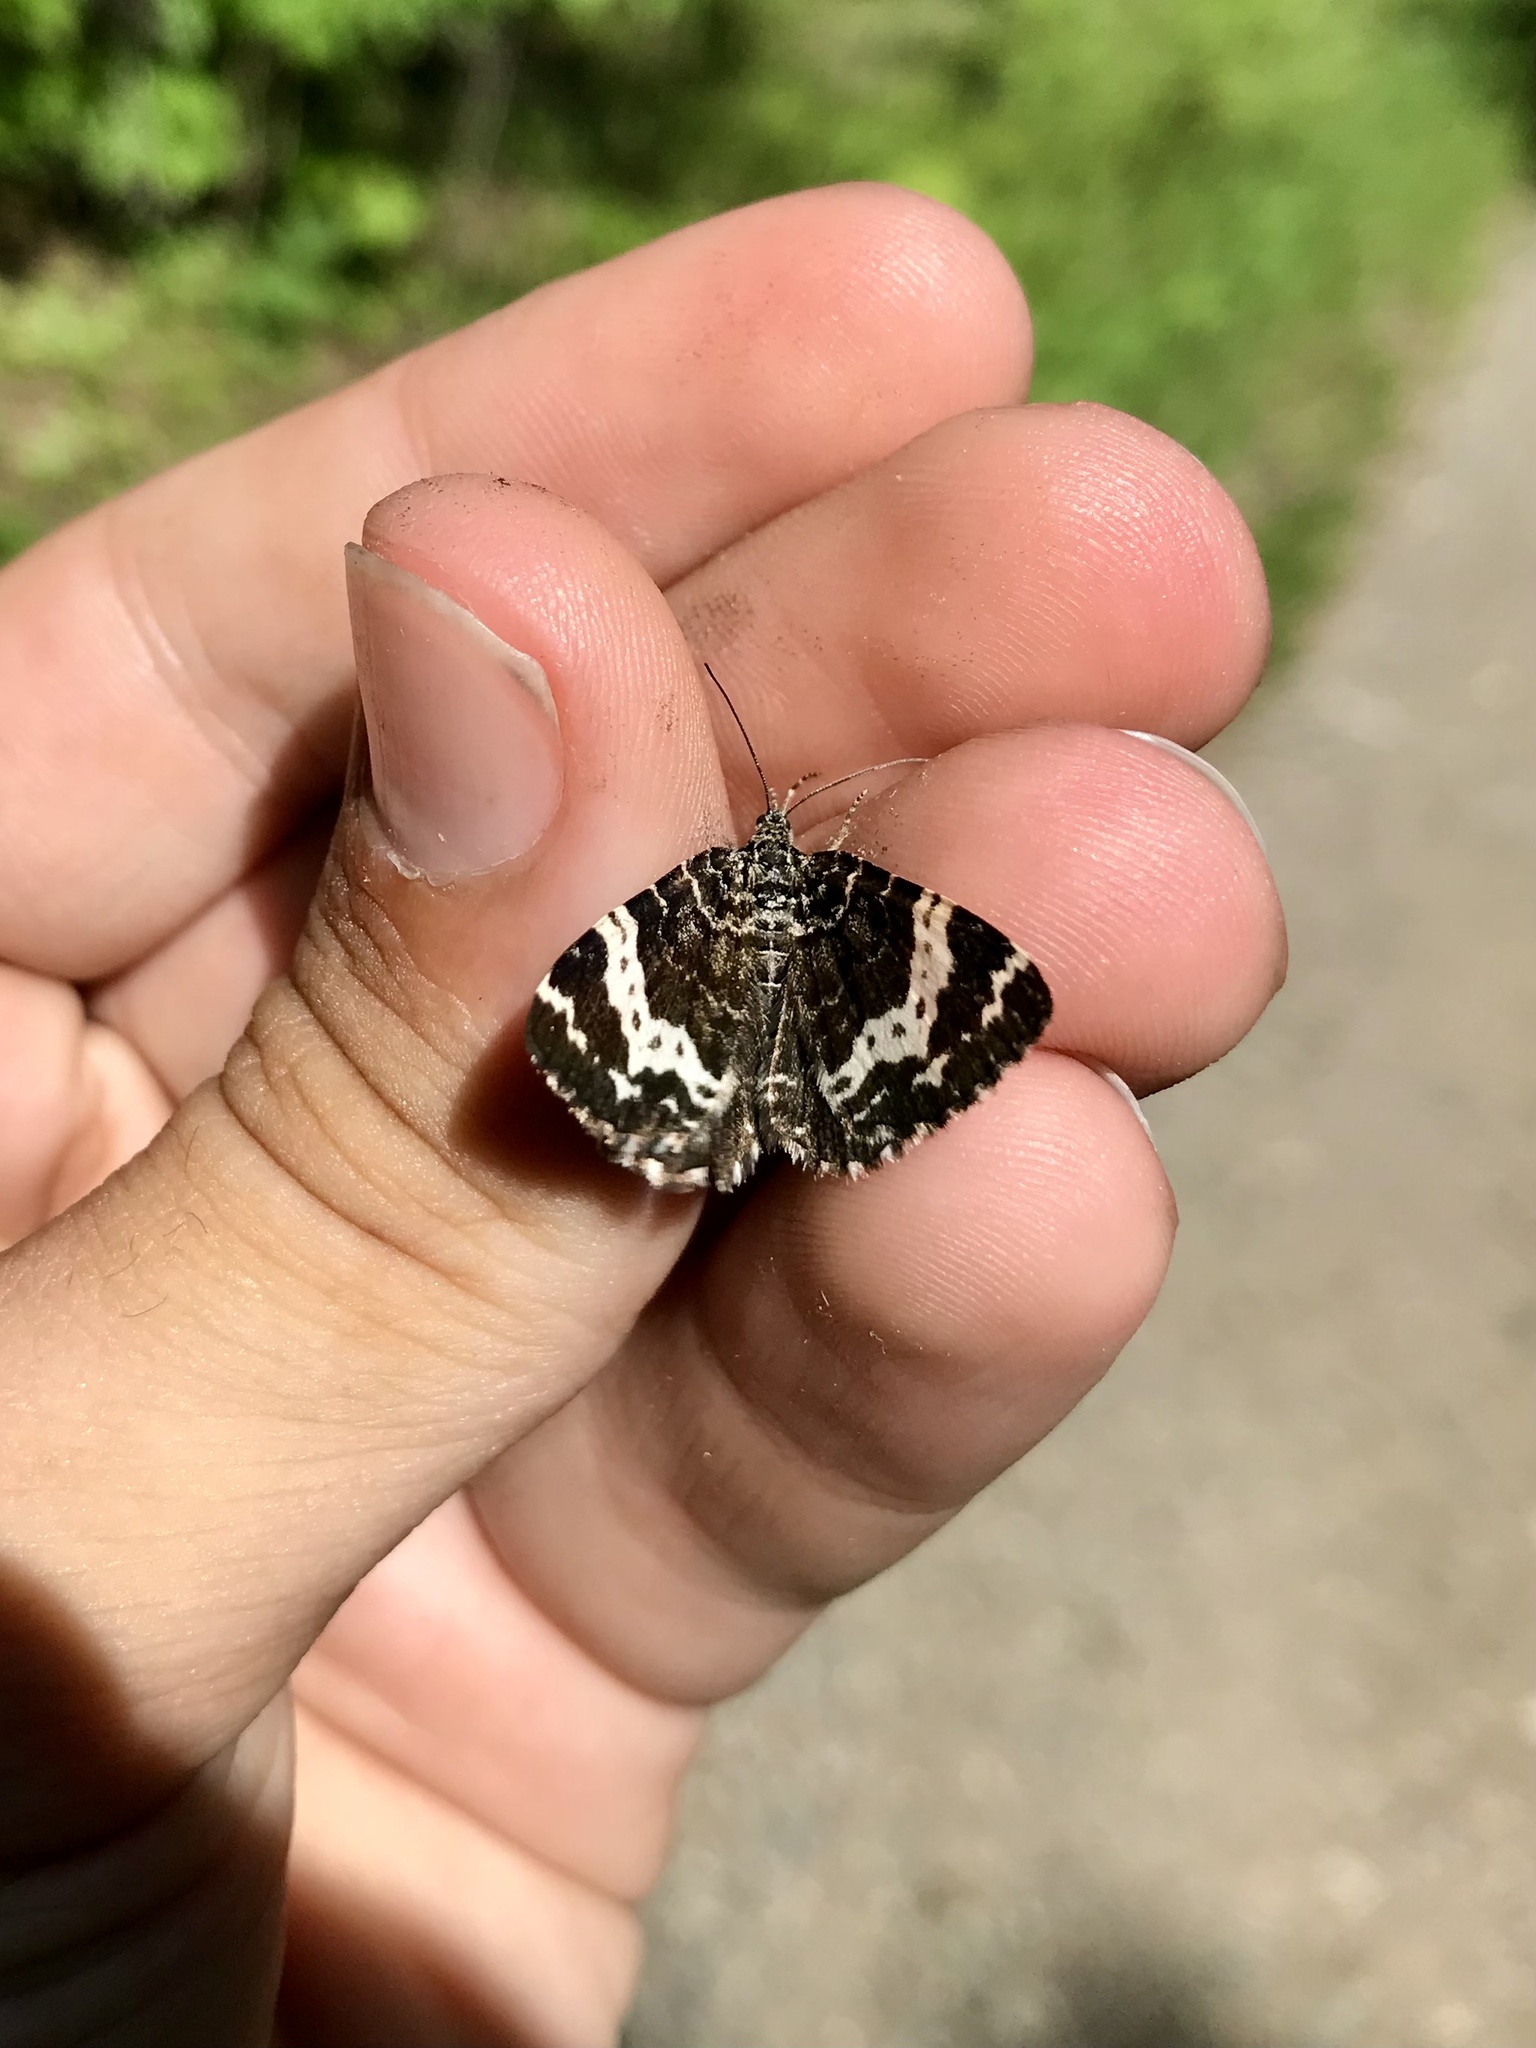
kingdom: Animalia
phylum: Arthropoda
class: Insecta
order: Lepidoptera
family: Geometridae
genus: Rheumaptera
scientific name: Rheumaptera hastata
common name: Argent & sable
